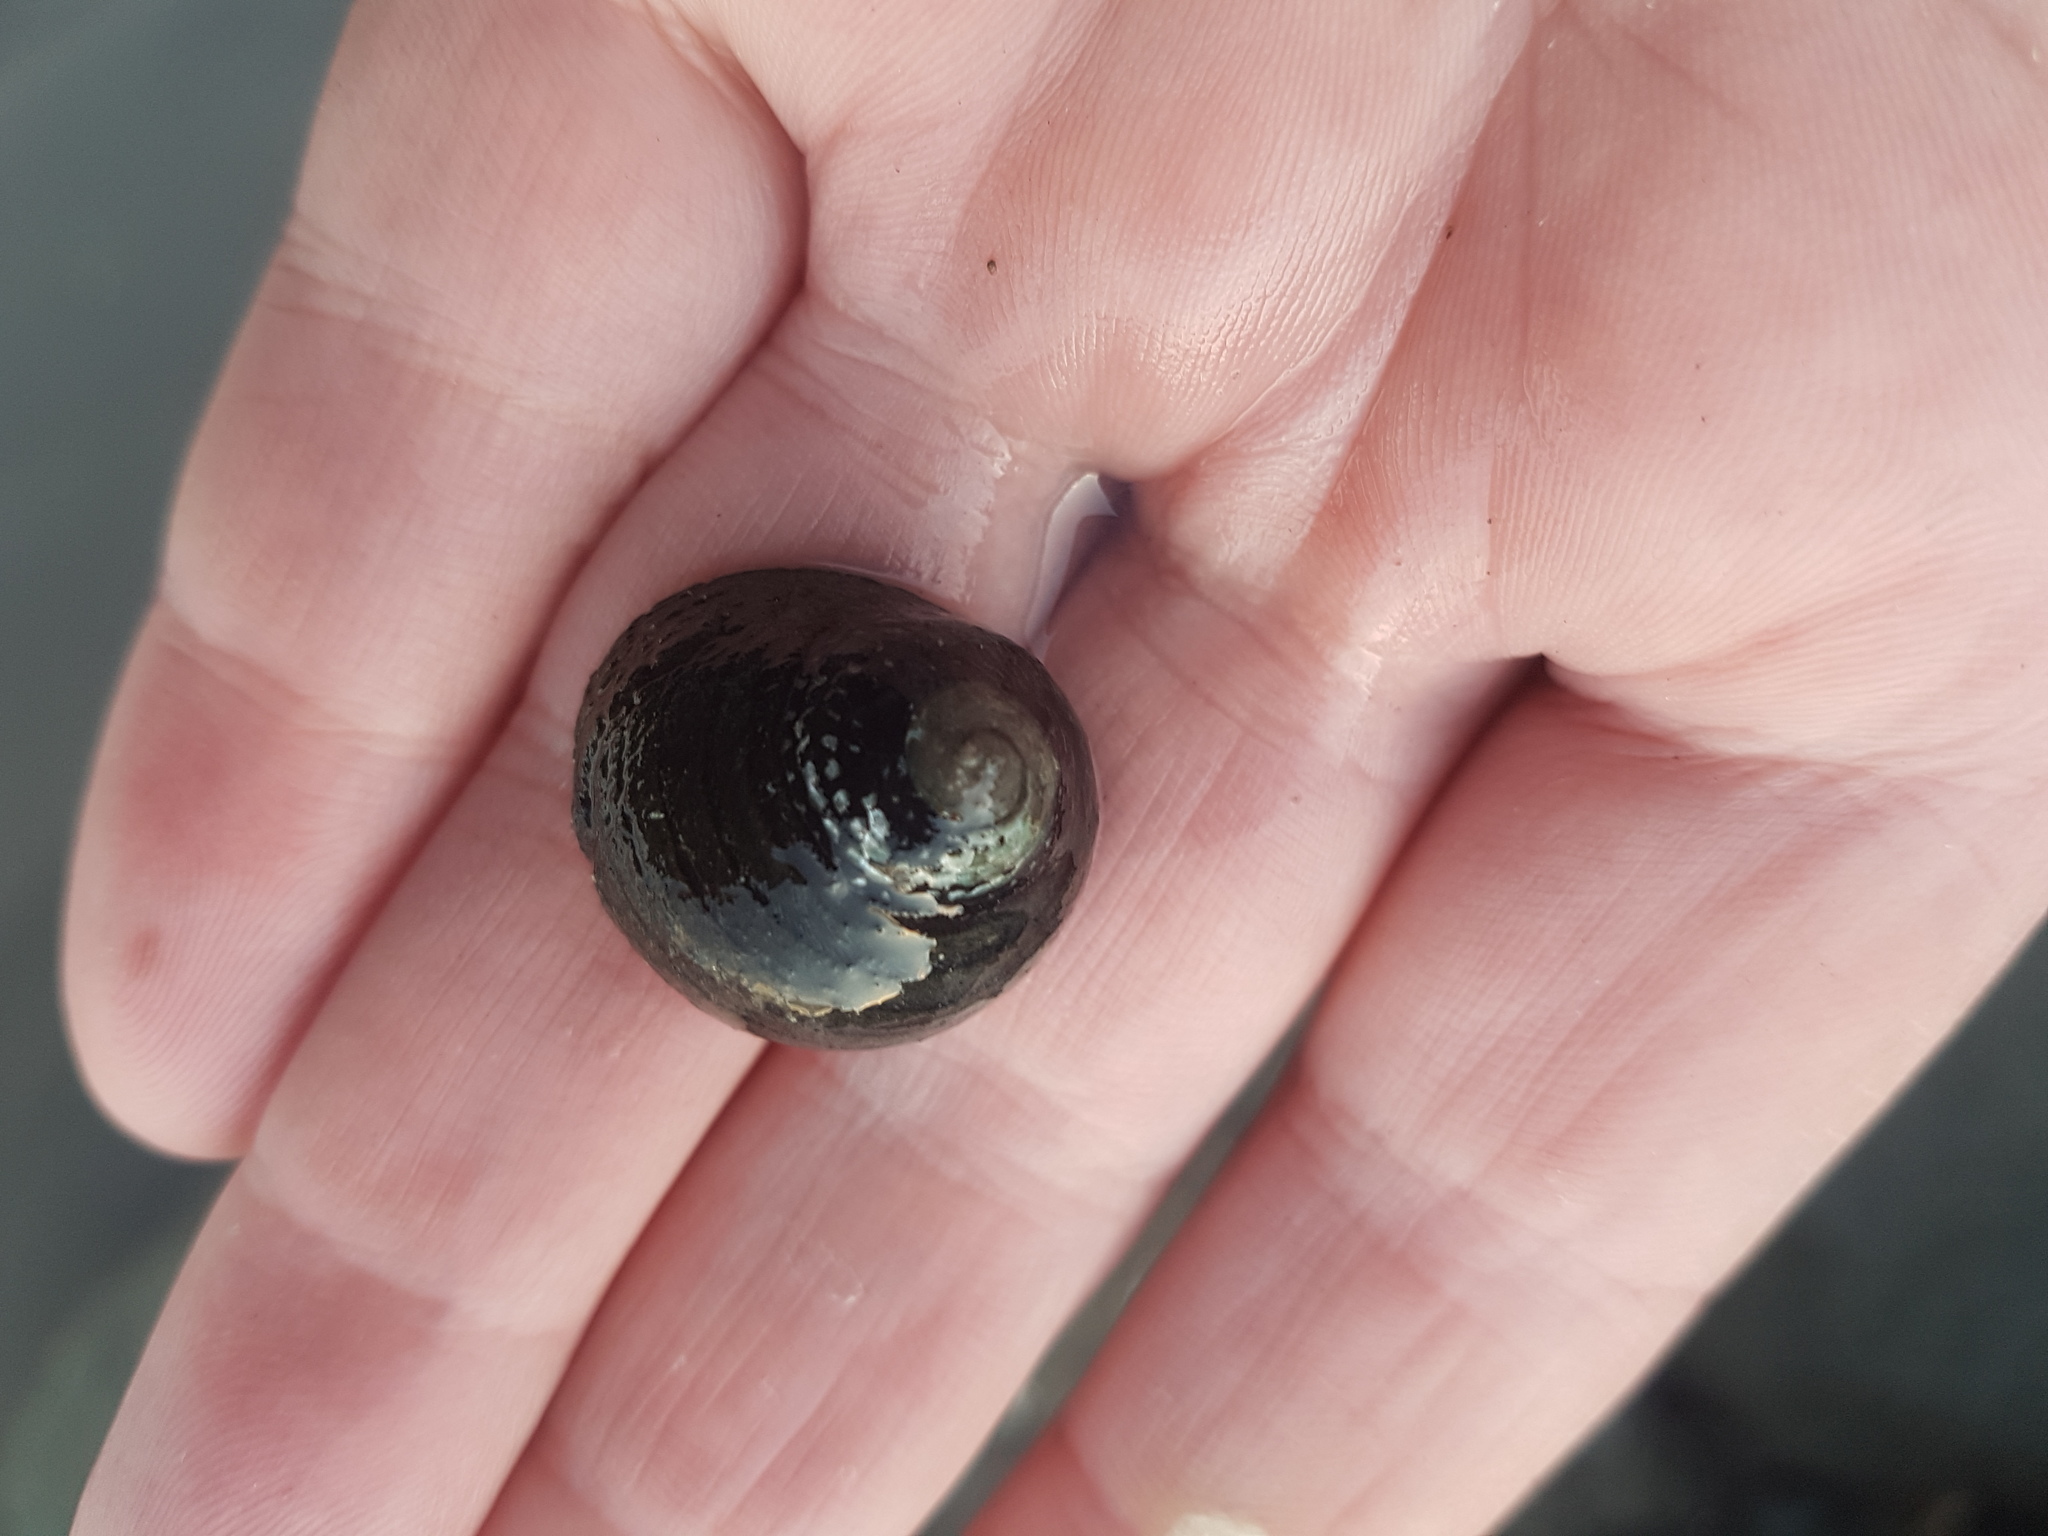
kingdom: Animalia
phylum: Mollusca
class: Gastropoda
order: Trochida
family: Trochidae
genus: Diloma
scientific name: Diloma aethiops
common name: Scorched monodont
